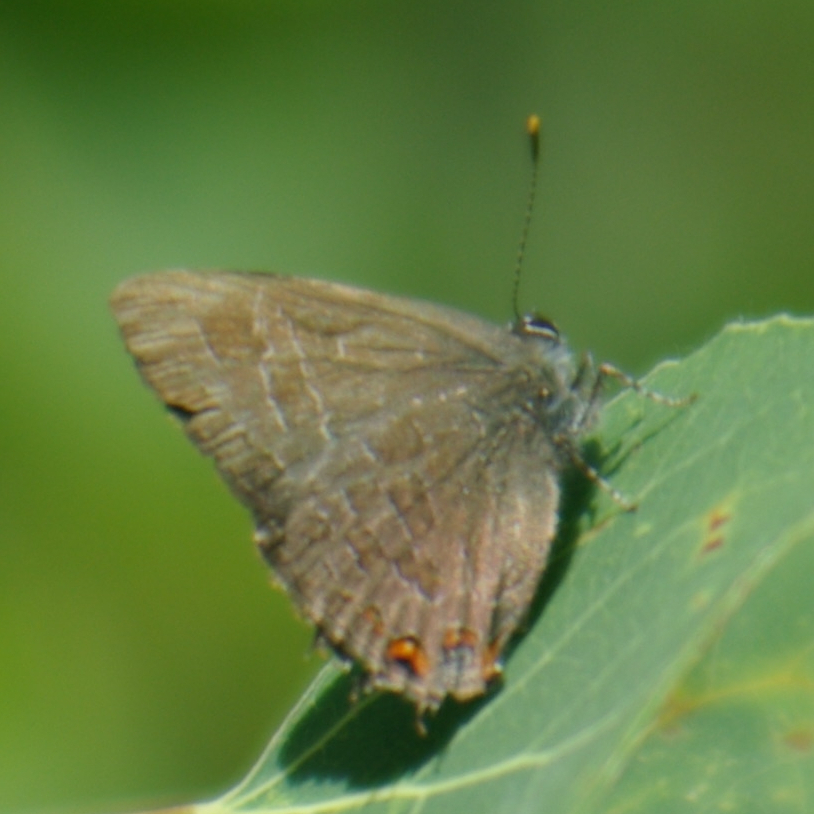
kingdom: Animalia
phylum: Arthropoda
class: Insecta
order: Lepidoptera
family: Lycaenidae
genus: Satyrium
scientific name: Satyrium liparops
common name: Striped hairstreak
